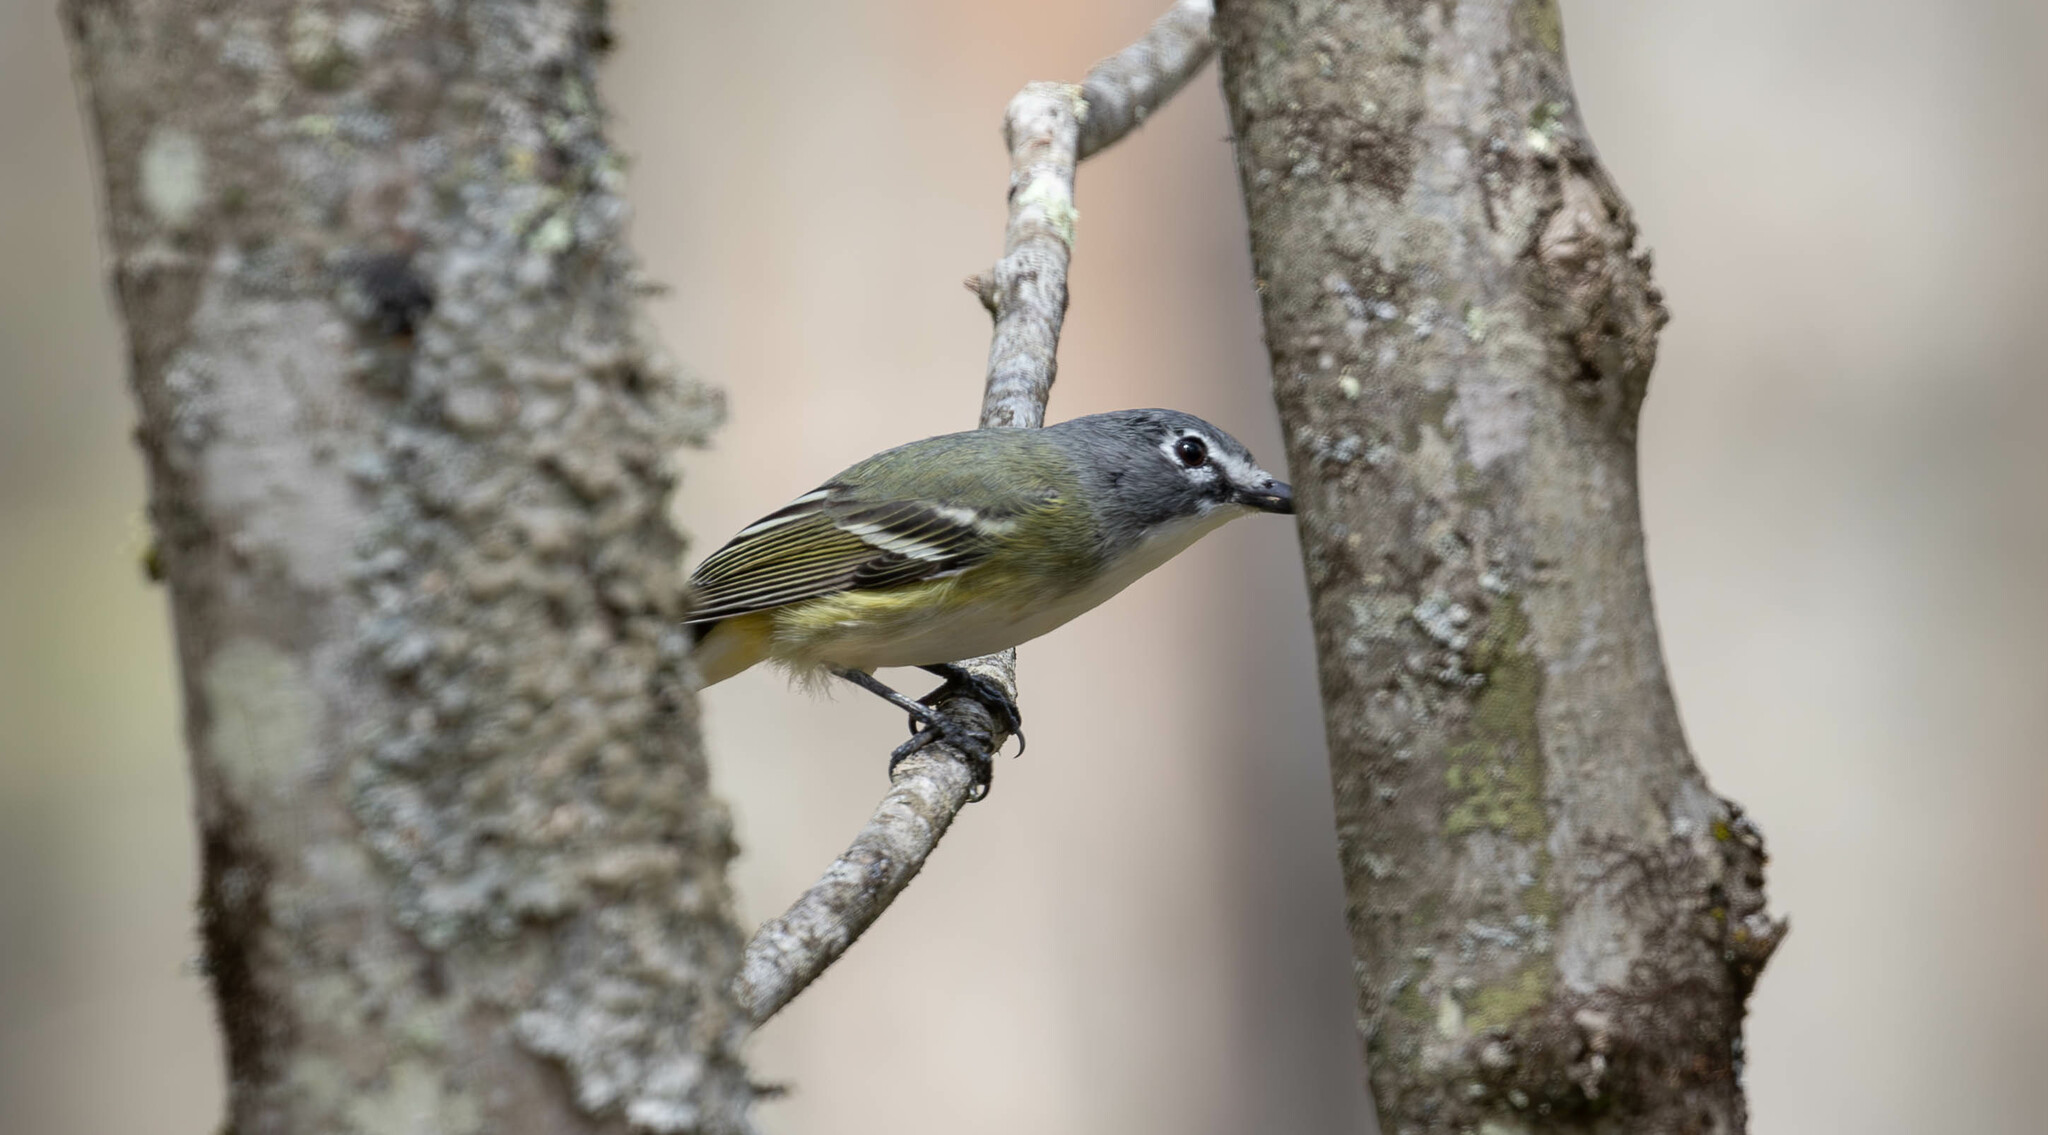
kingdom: Animalia
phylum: Chordata
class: Aves
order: Passeriformes
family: Vireonidae
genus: Vireo
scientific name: Vireo solitarius
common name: Blue-headed vireo
